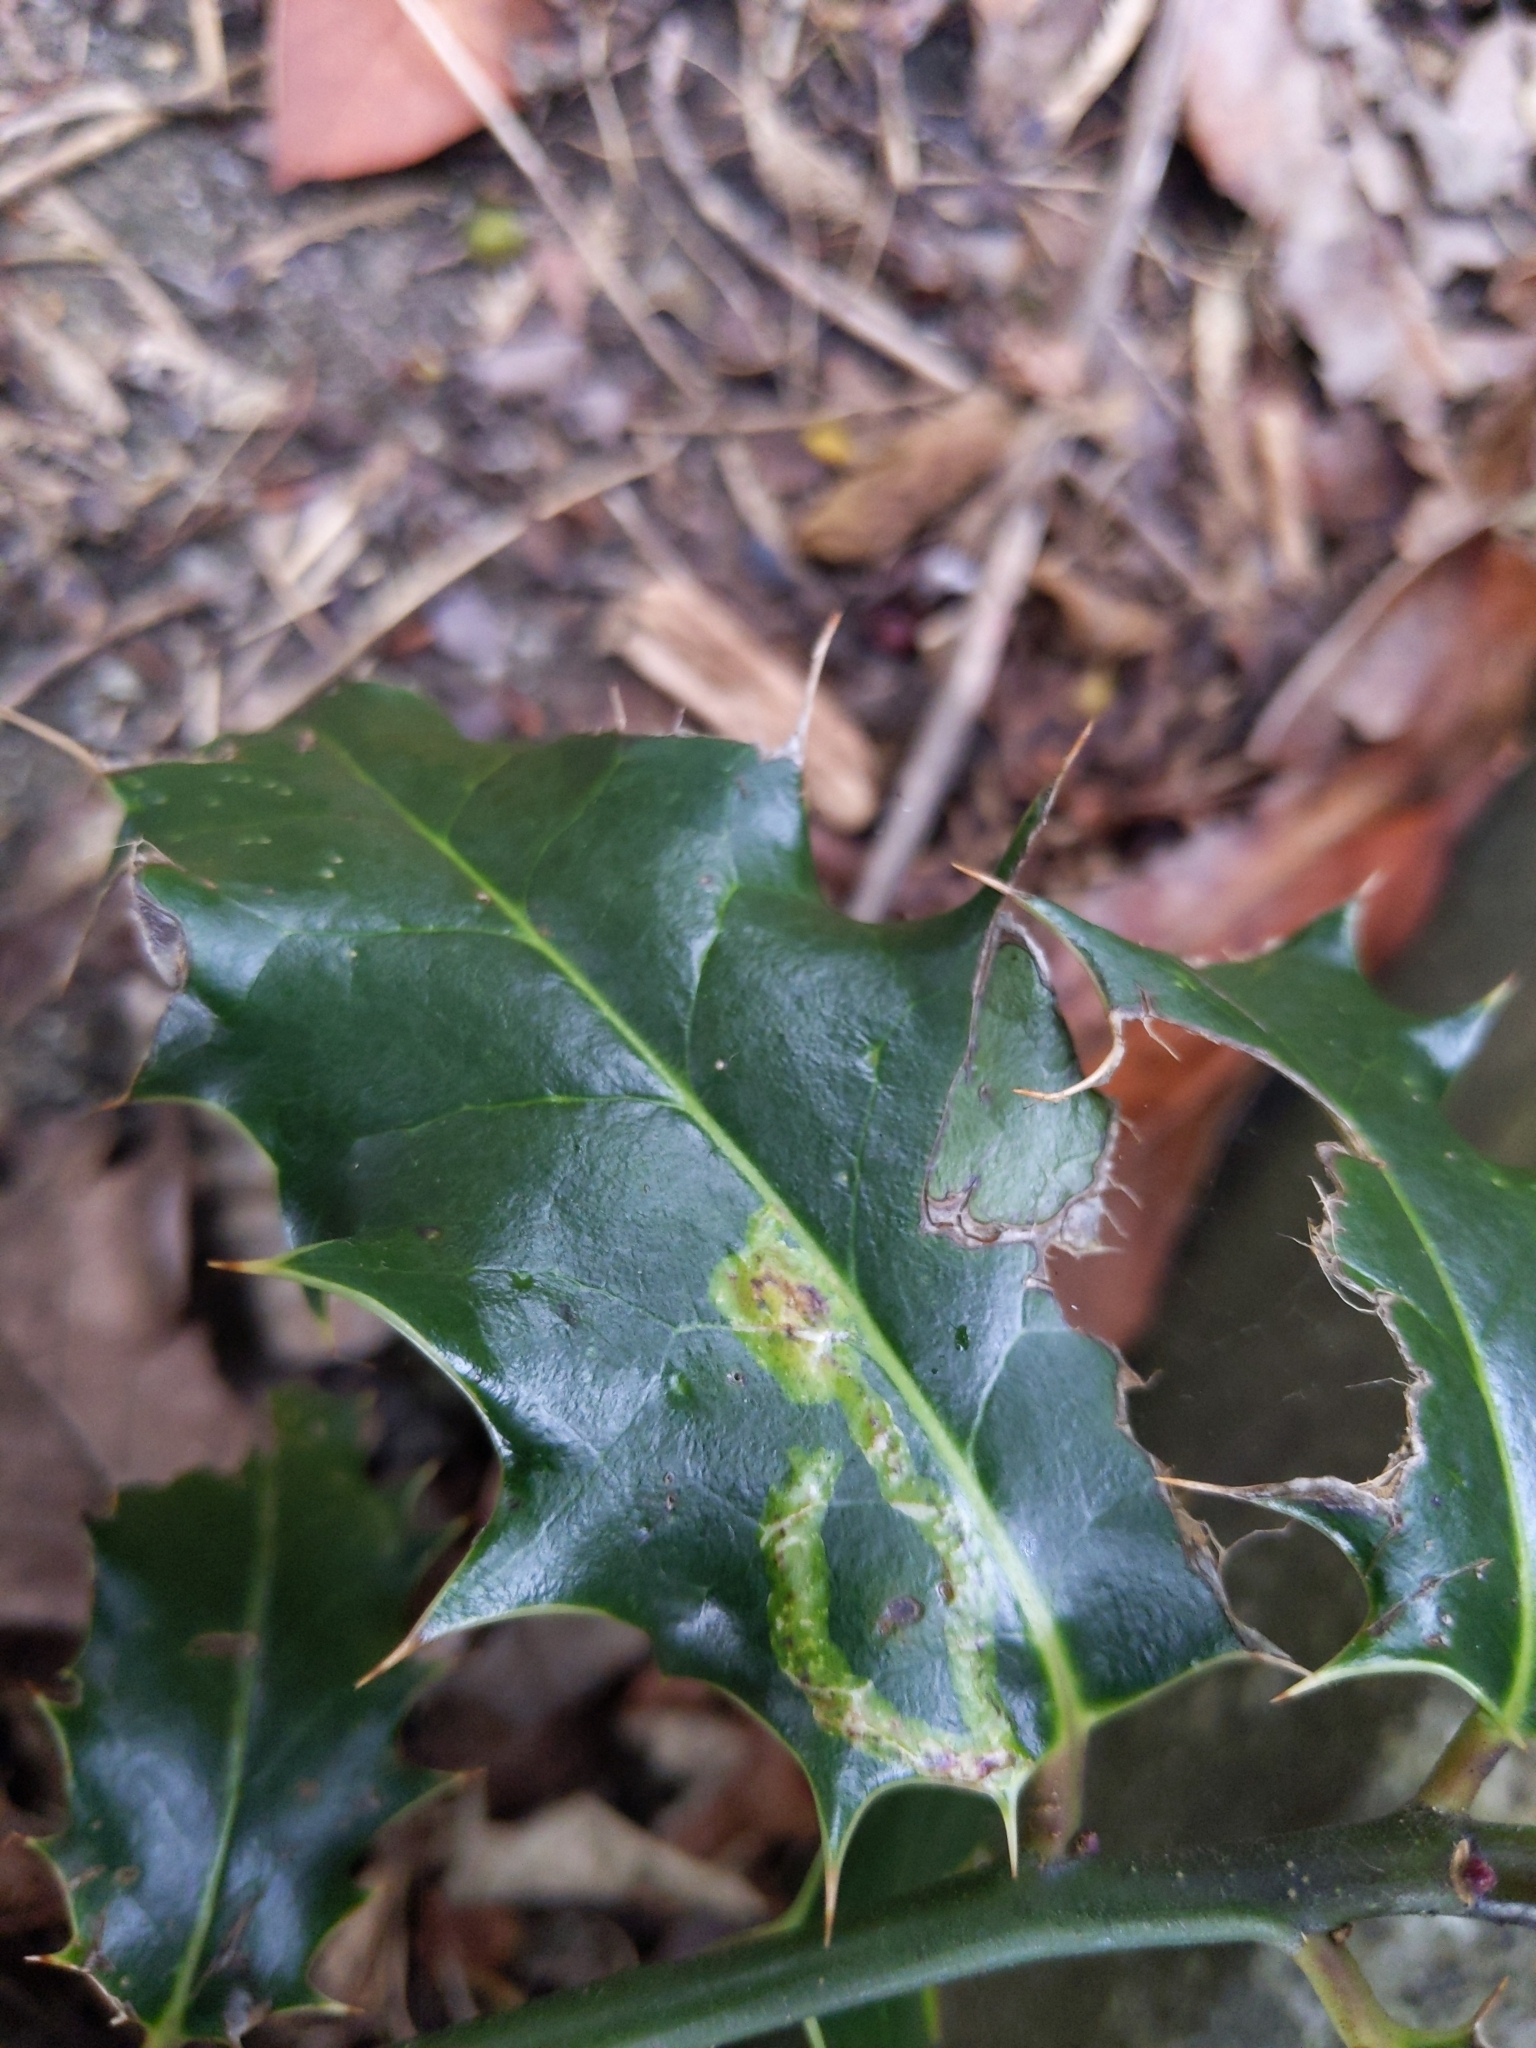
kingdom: Animalia
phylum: Arthropoda
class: Insecta
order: Diptera
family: Agromyzidae
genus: Phytomyza
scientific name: Phytomyza ilicis
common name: Holly leafminer
